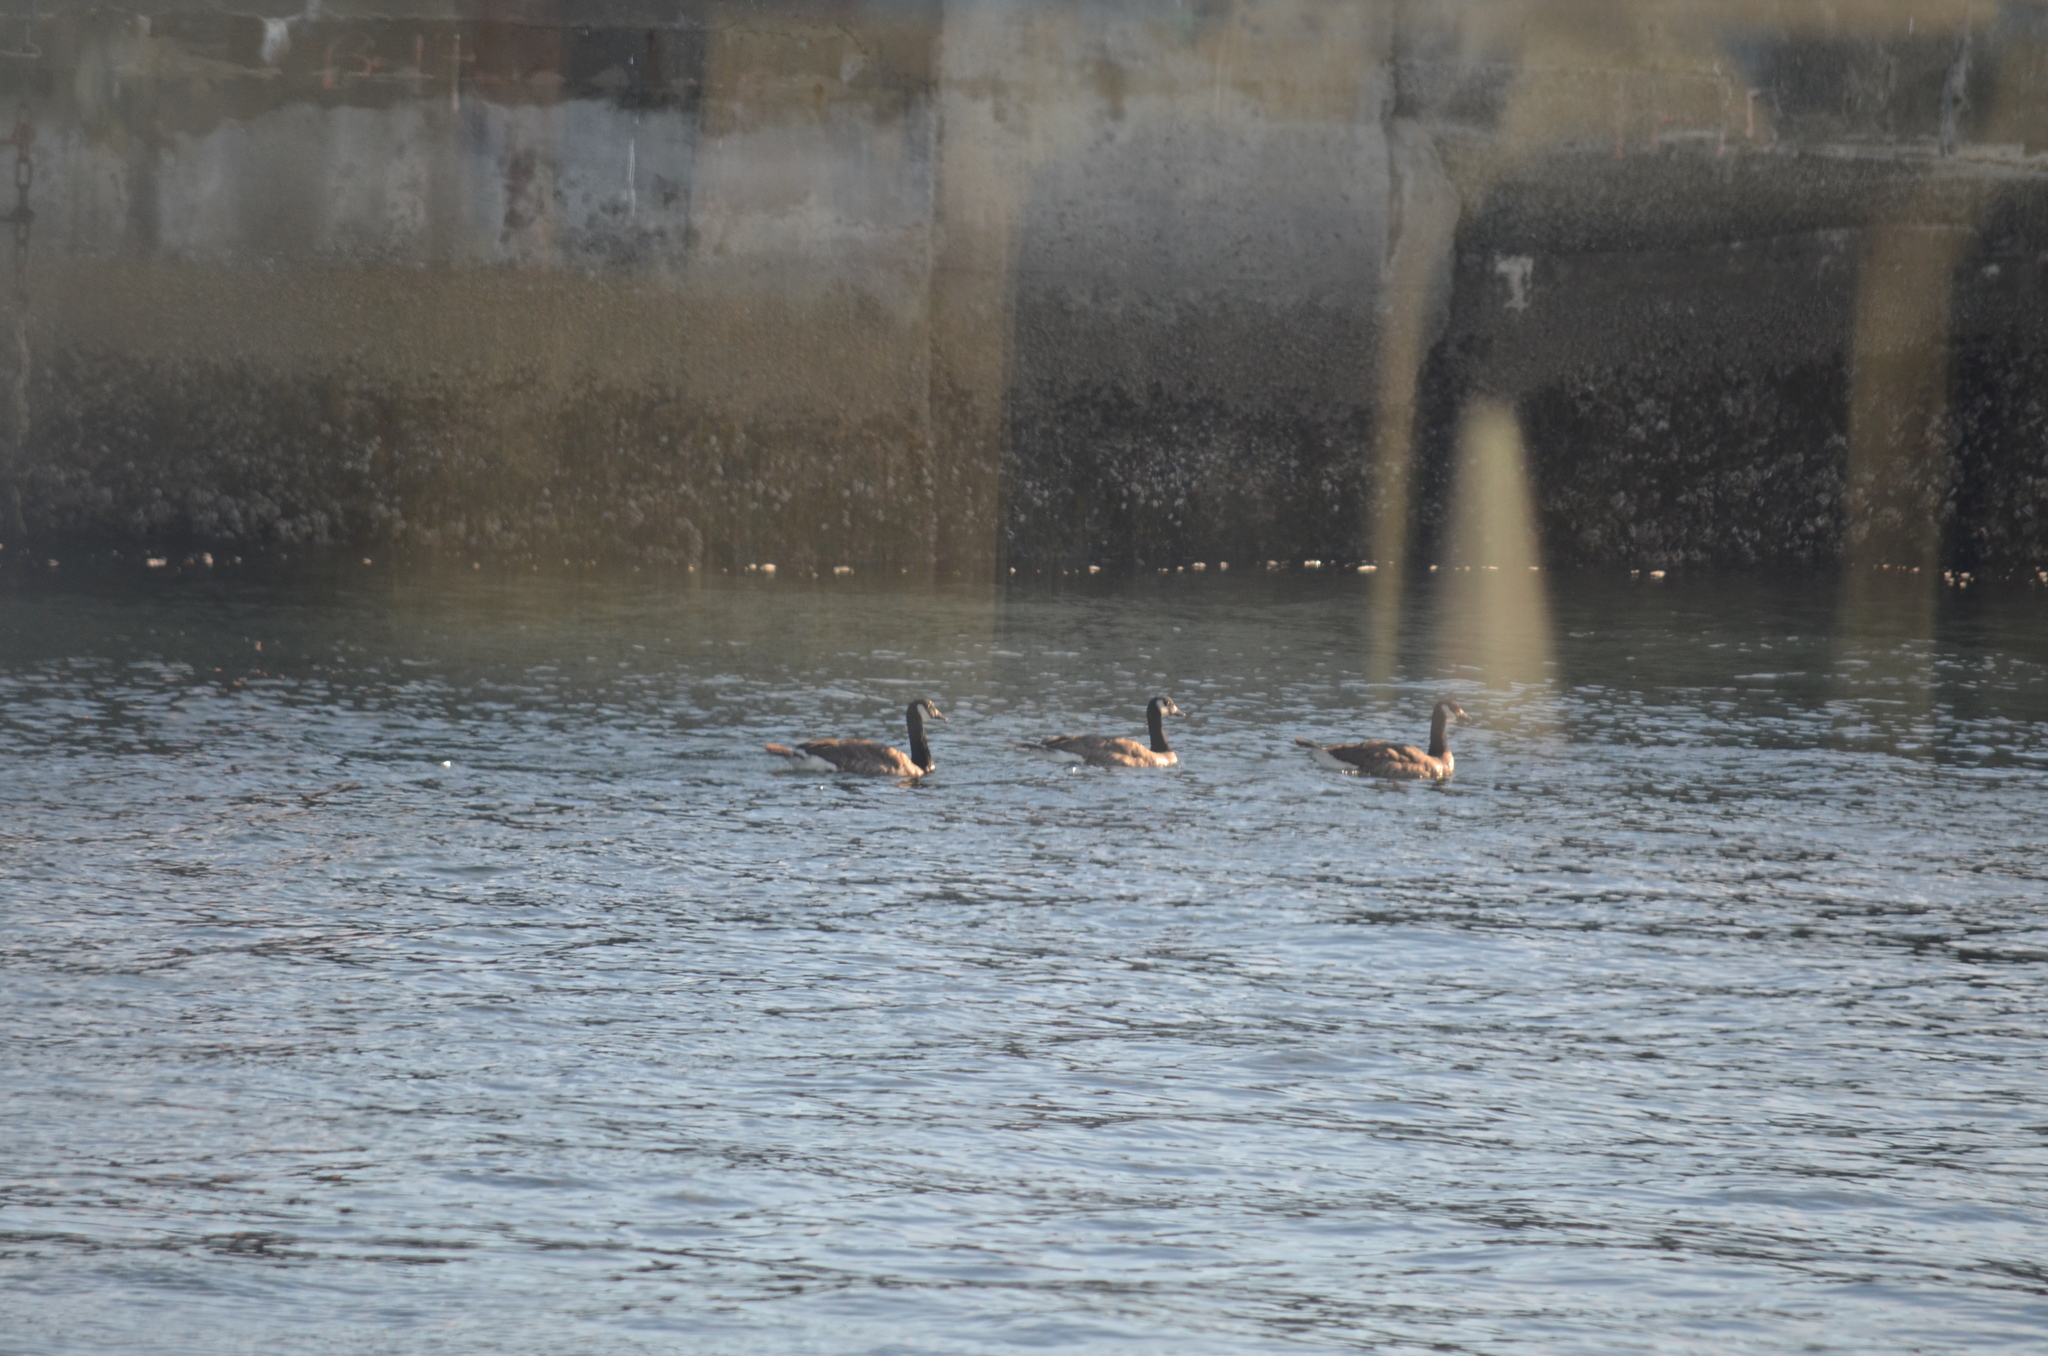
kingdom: Animalia
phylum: Chordata
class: Aves
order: Anseriformes
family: Anatidae
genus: Branta
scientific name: Branta canadensis
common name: Canada goose
